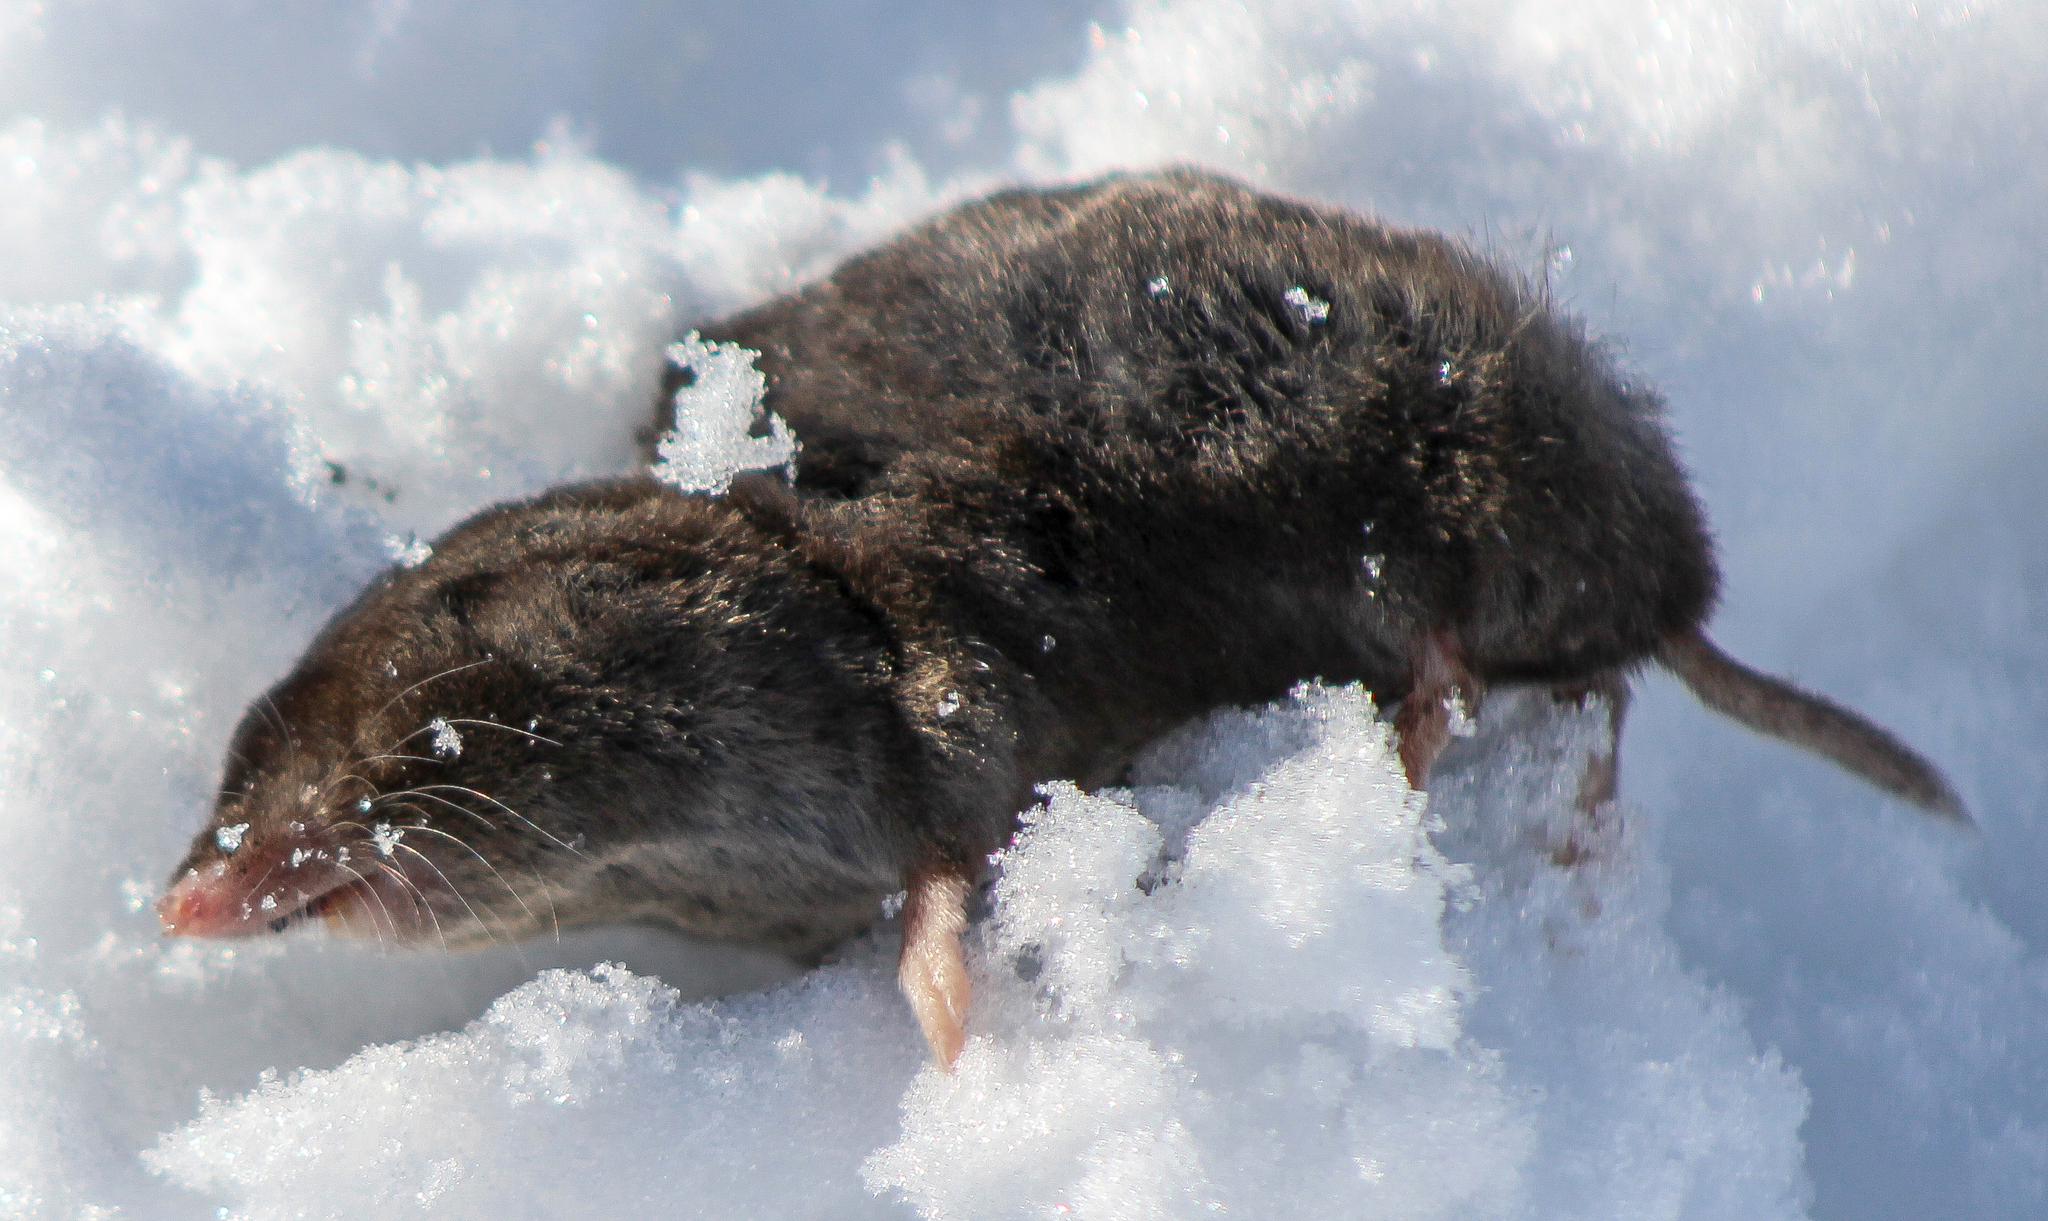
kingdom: Animalia
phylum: Chordata
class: Mammalia
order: Soricomorpha
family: Soricidae
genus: Blarina
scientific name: Blarina brevicauda
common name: Northern short-tailed shrew
